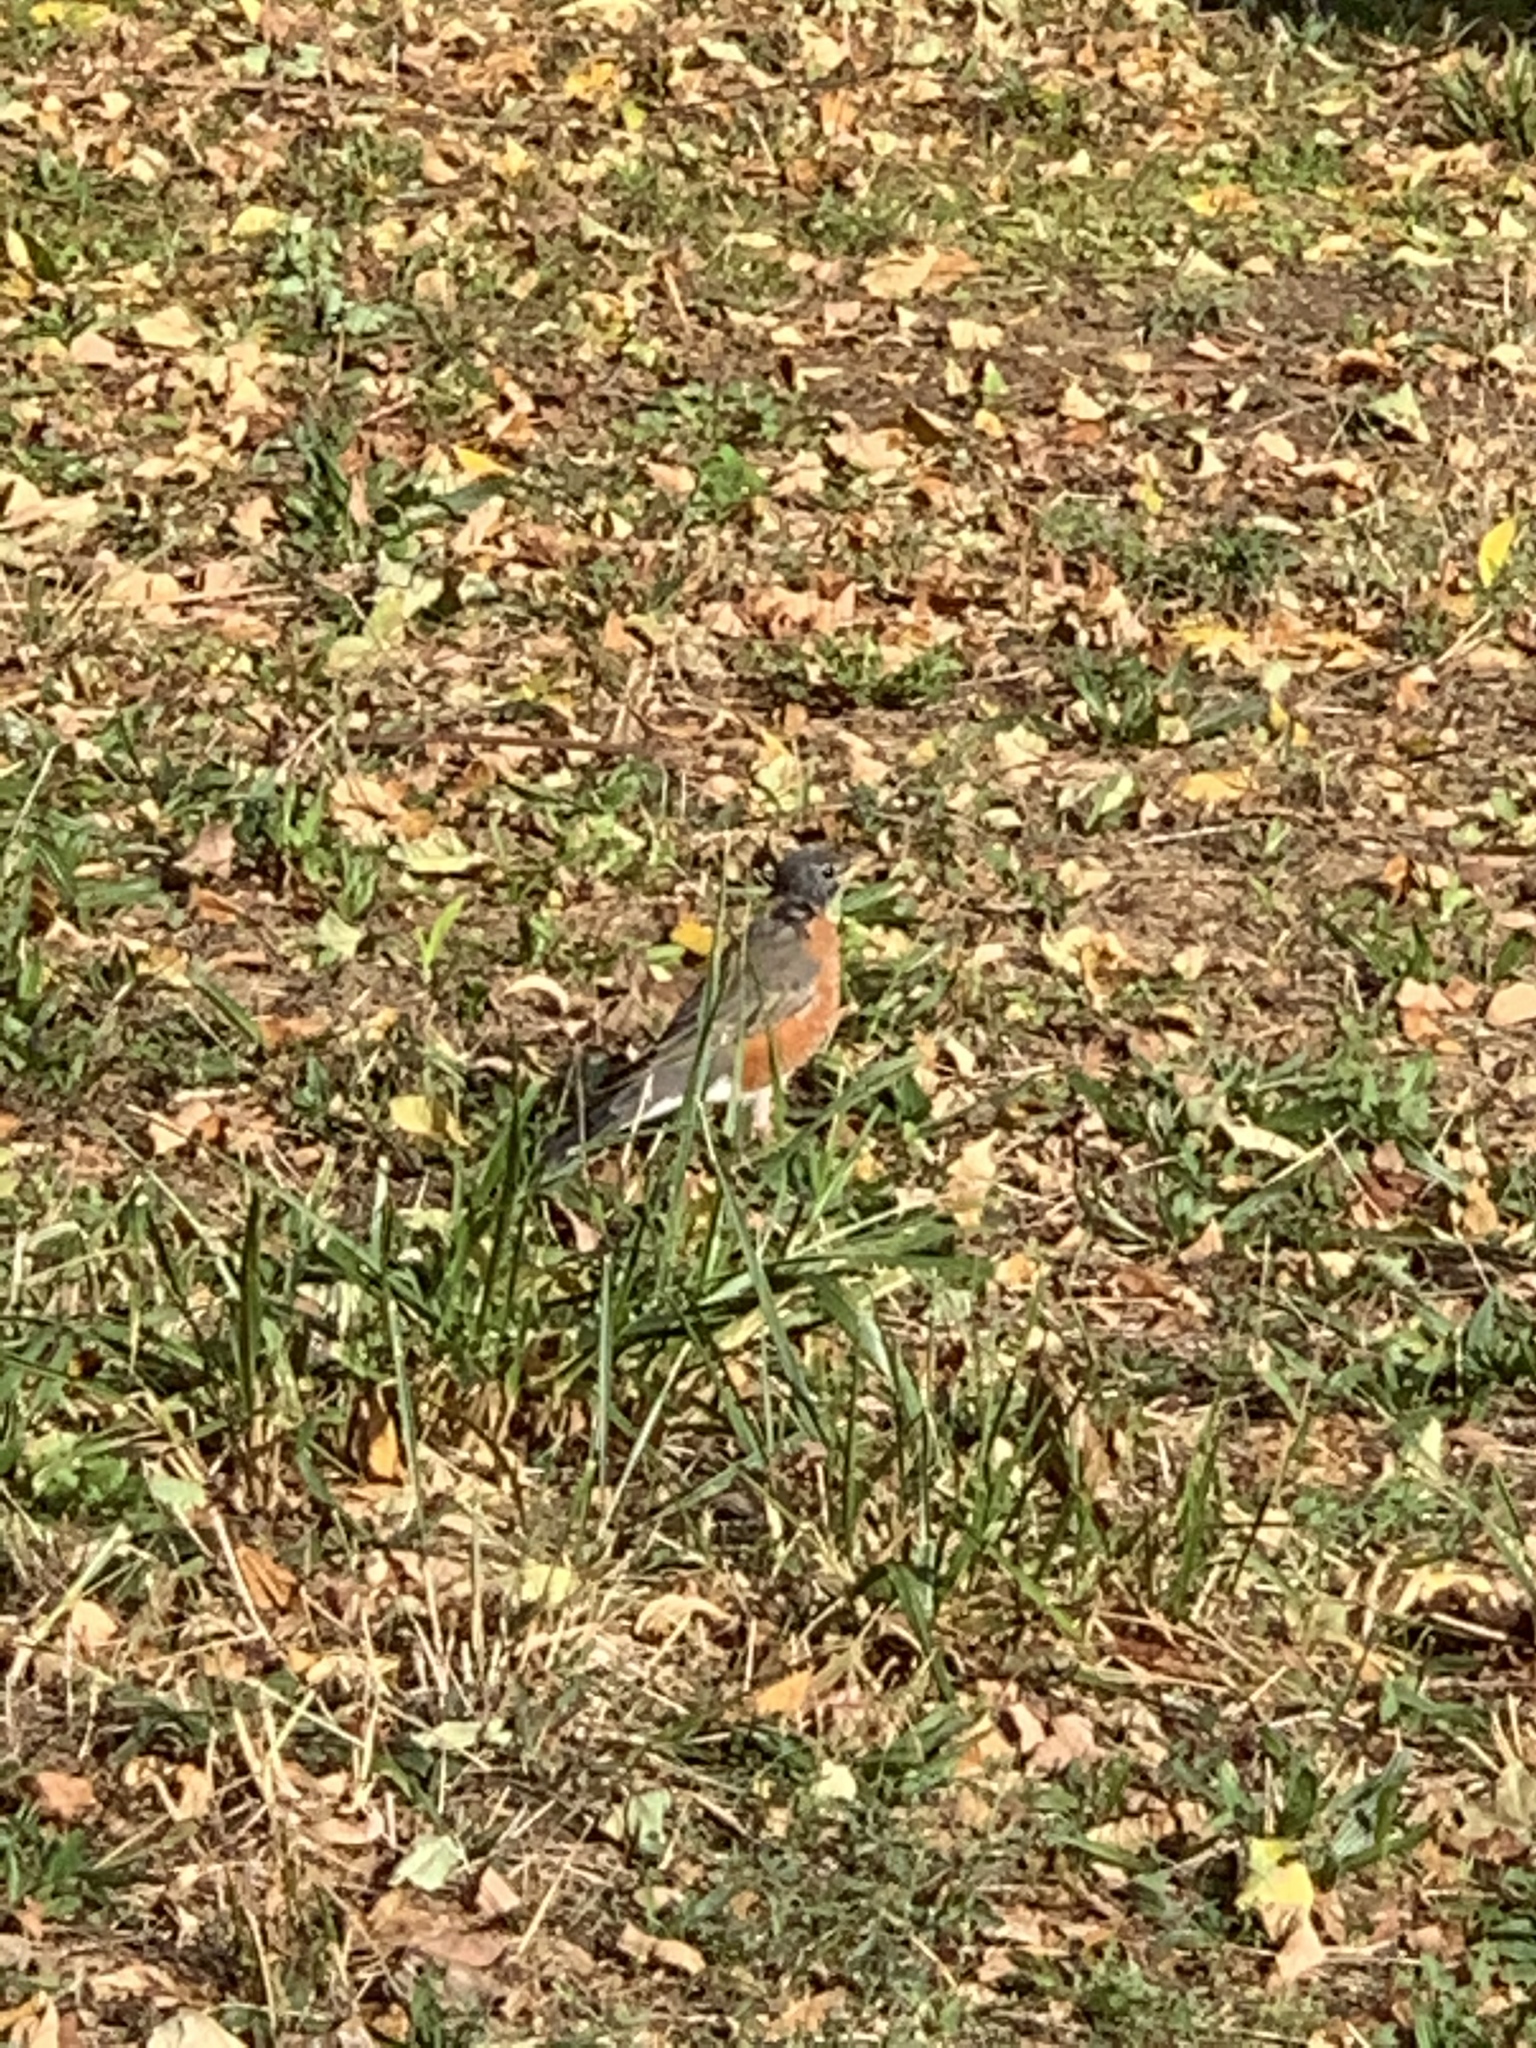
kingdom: Animalia
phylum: Chordata
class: Aves
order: Passeriformes
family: Turdidae
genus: Turdus
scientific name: Turdus migratorius
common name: American robin
